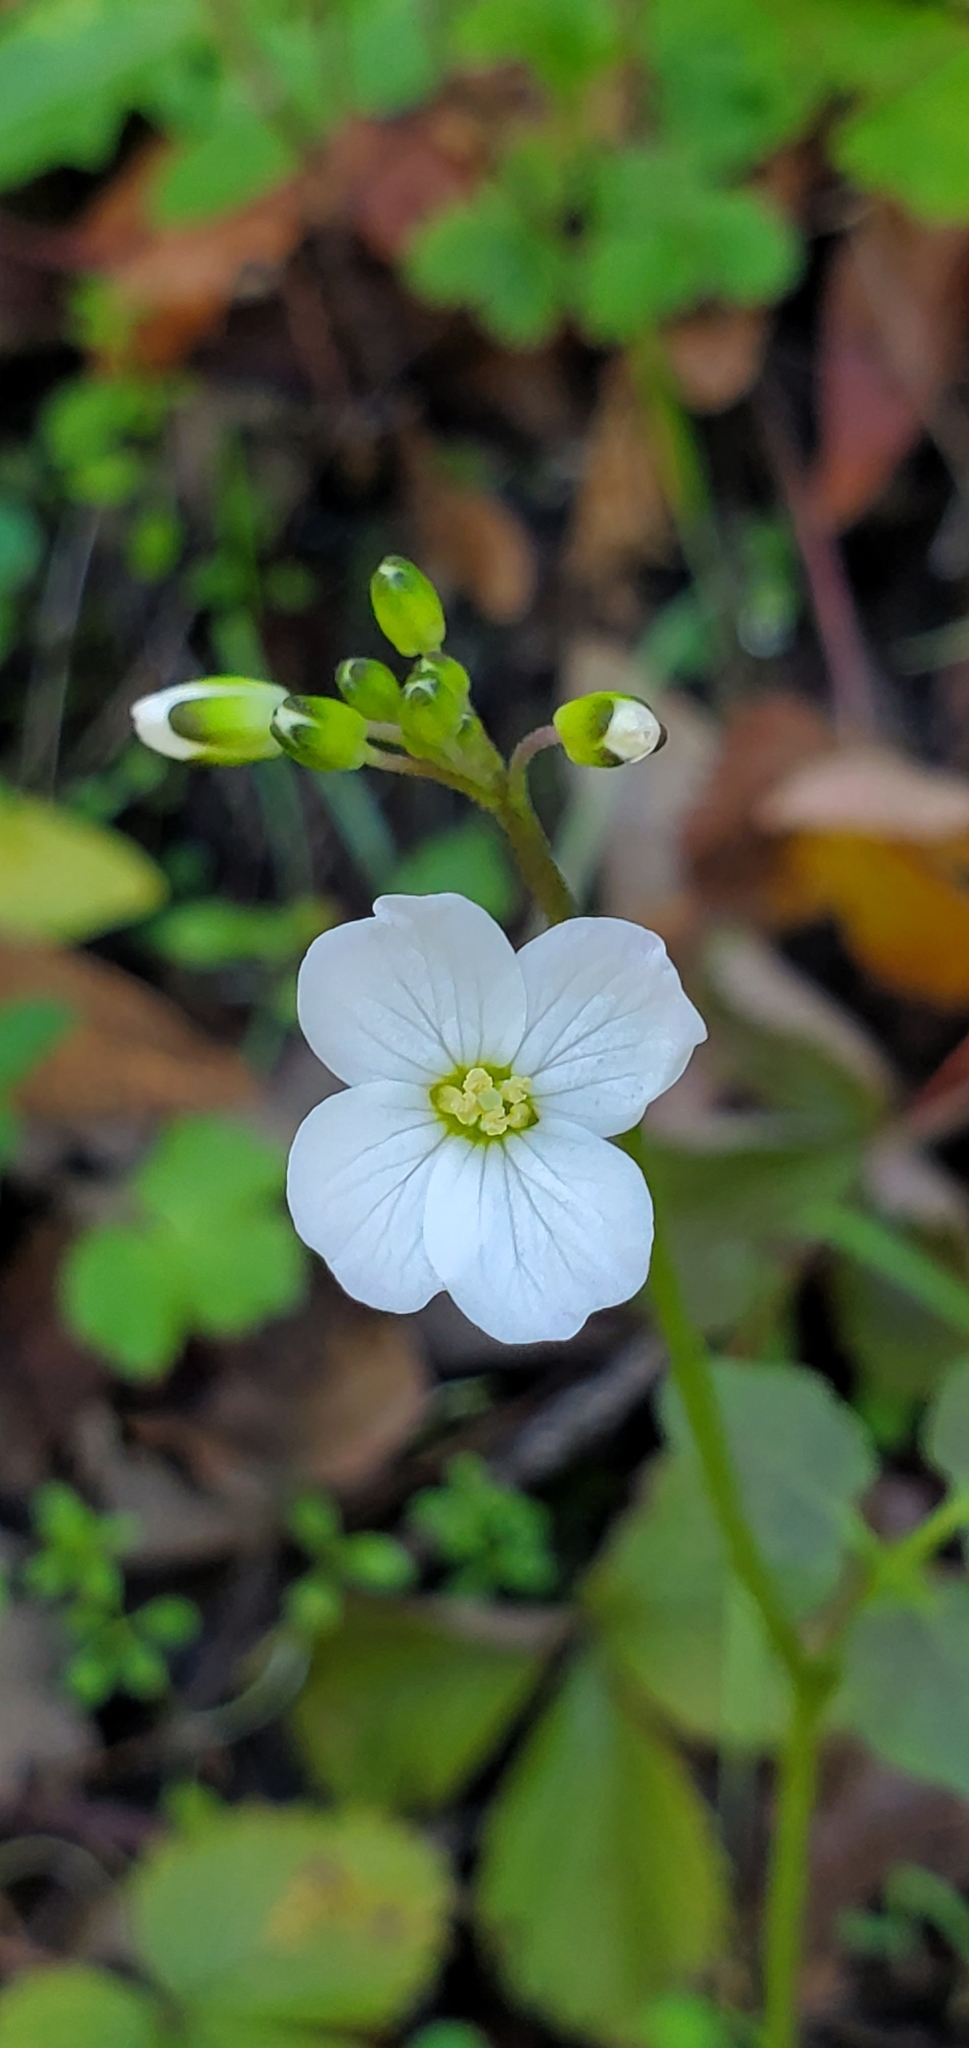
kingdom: Plantae
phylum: Tracheophyta
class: Magnoliopsida
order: Brassicales
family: Brassicaceae
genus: Cardamine
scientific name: Cardamine californica
